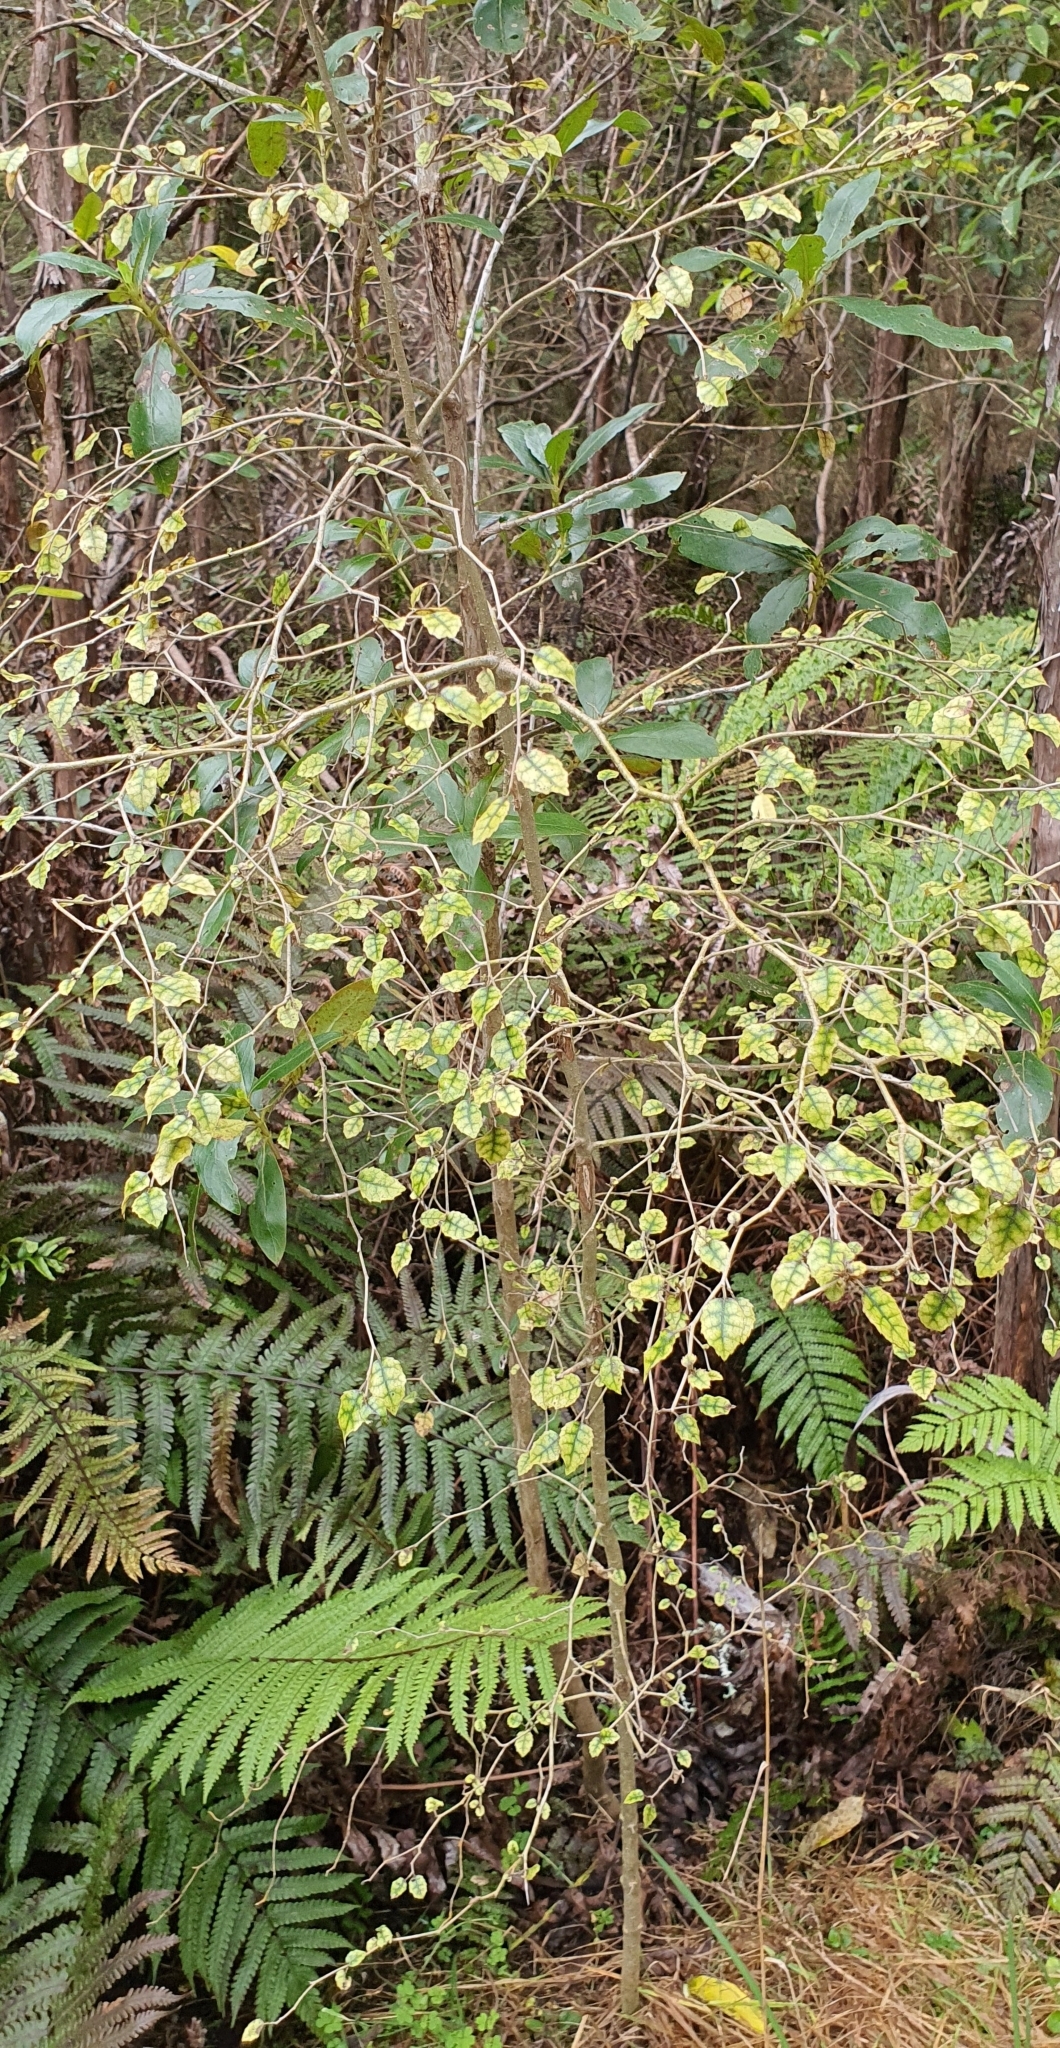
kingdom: Plantae
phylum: Tracheophyta
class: Magnoliopsida
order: Asterales
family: Rousseaceae
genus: Carpodetus
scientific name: Carpodetus serratus
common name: White mapau
